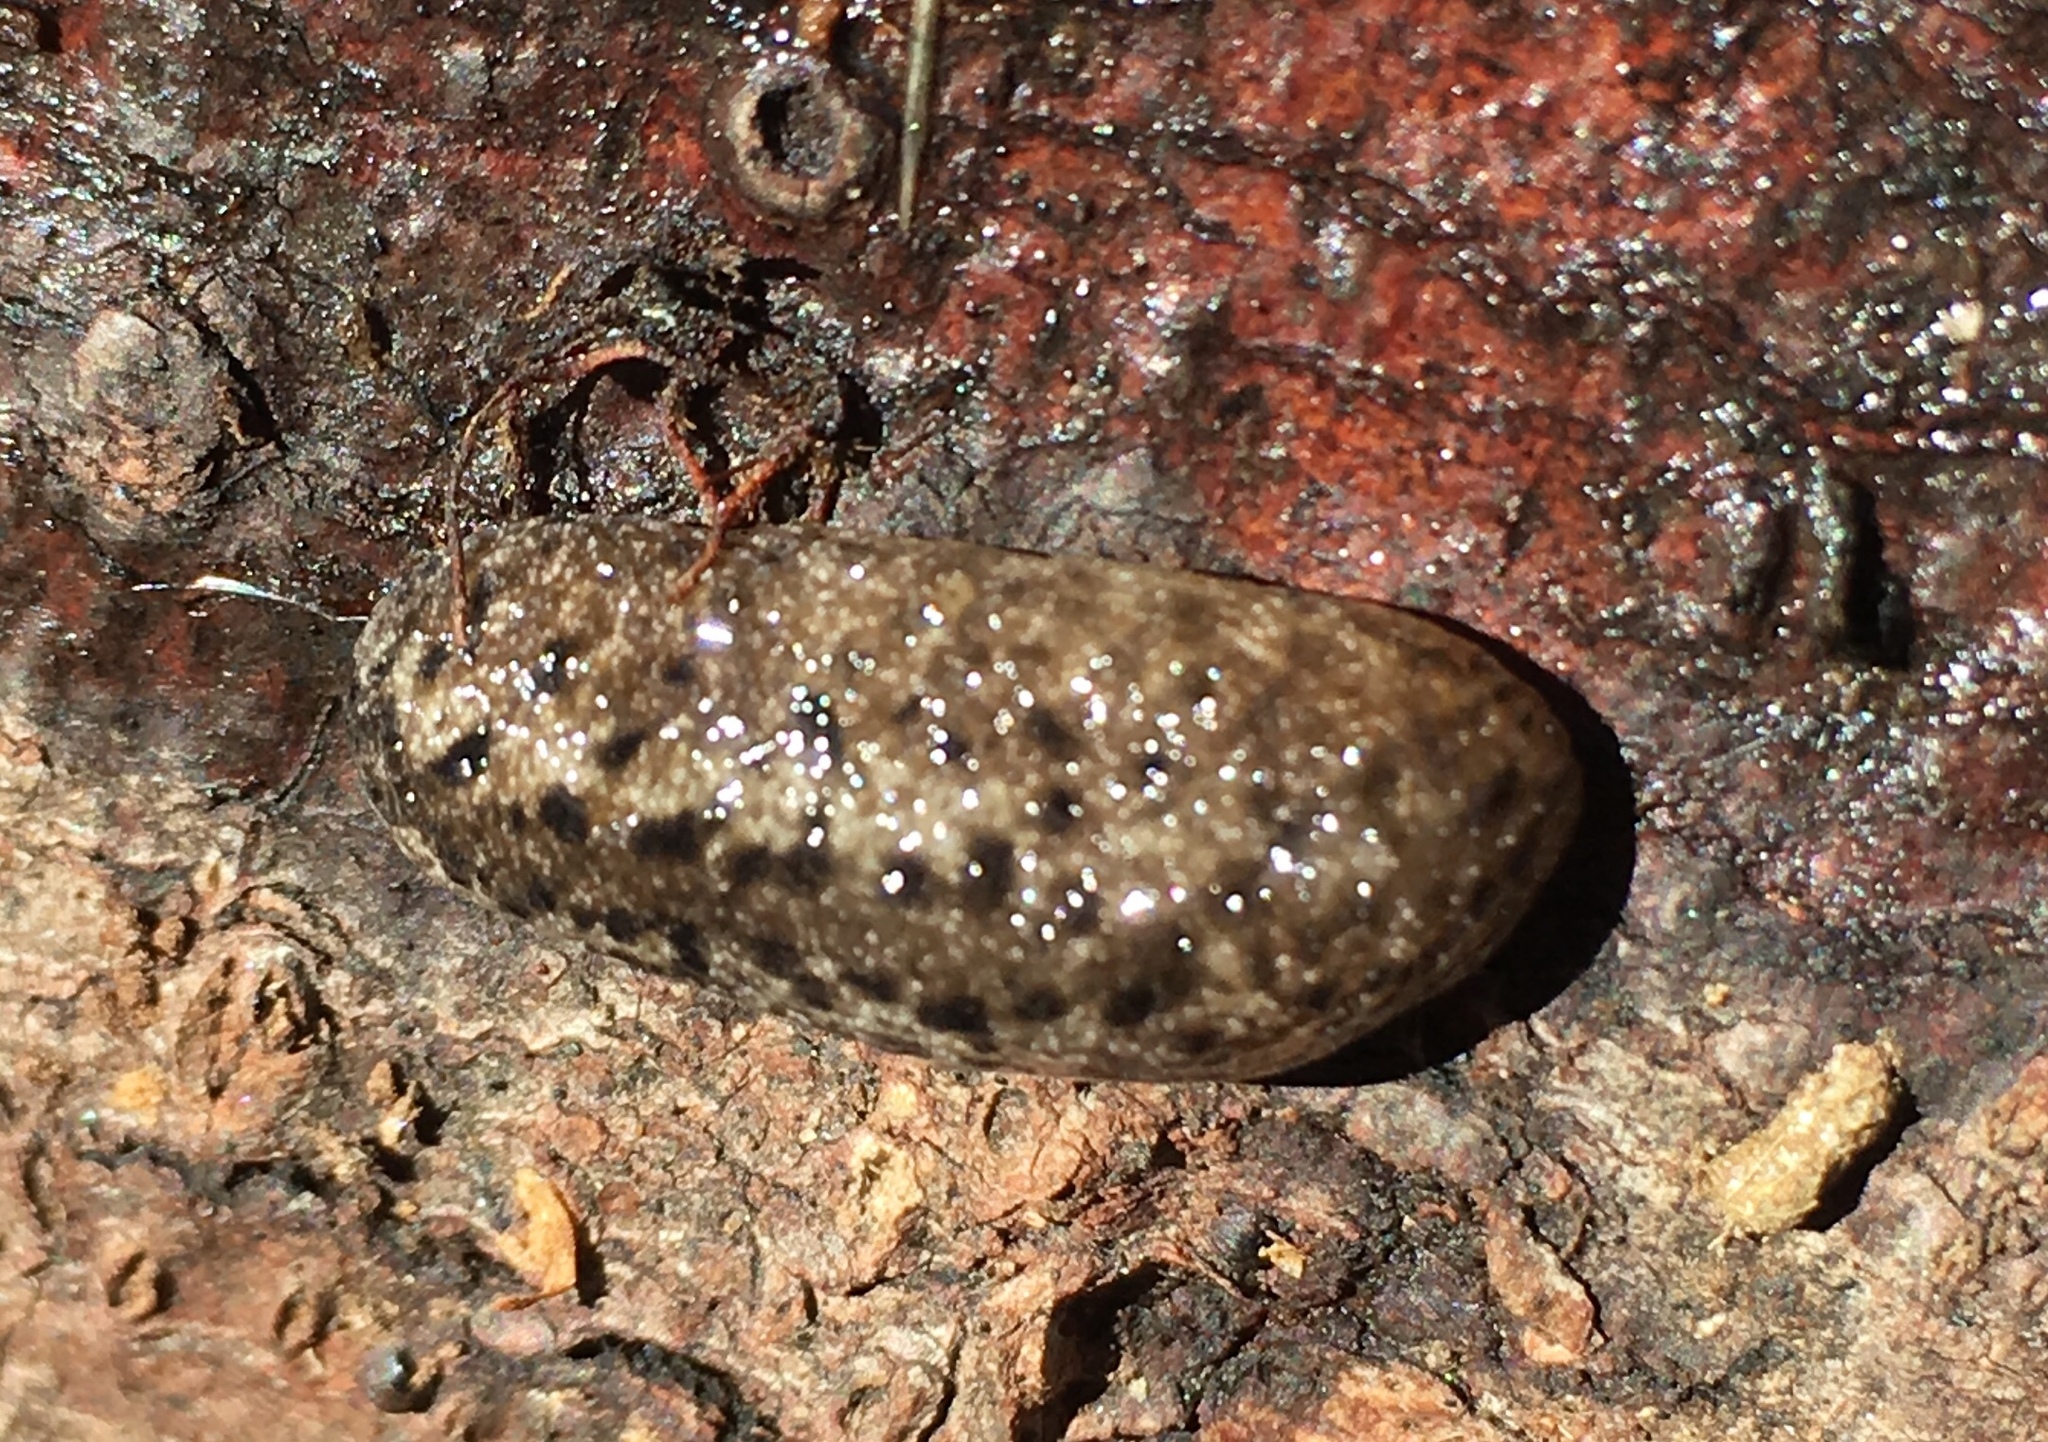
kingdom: Animalia
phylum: Mollusca
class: Gastropoda
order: Stylommatophora
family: Philomycidae
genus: Philomycus
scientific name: Philomycus carolinianus
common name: Carolina mantleslug
